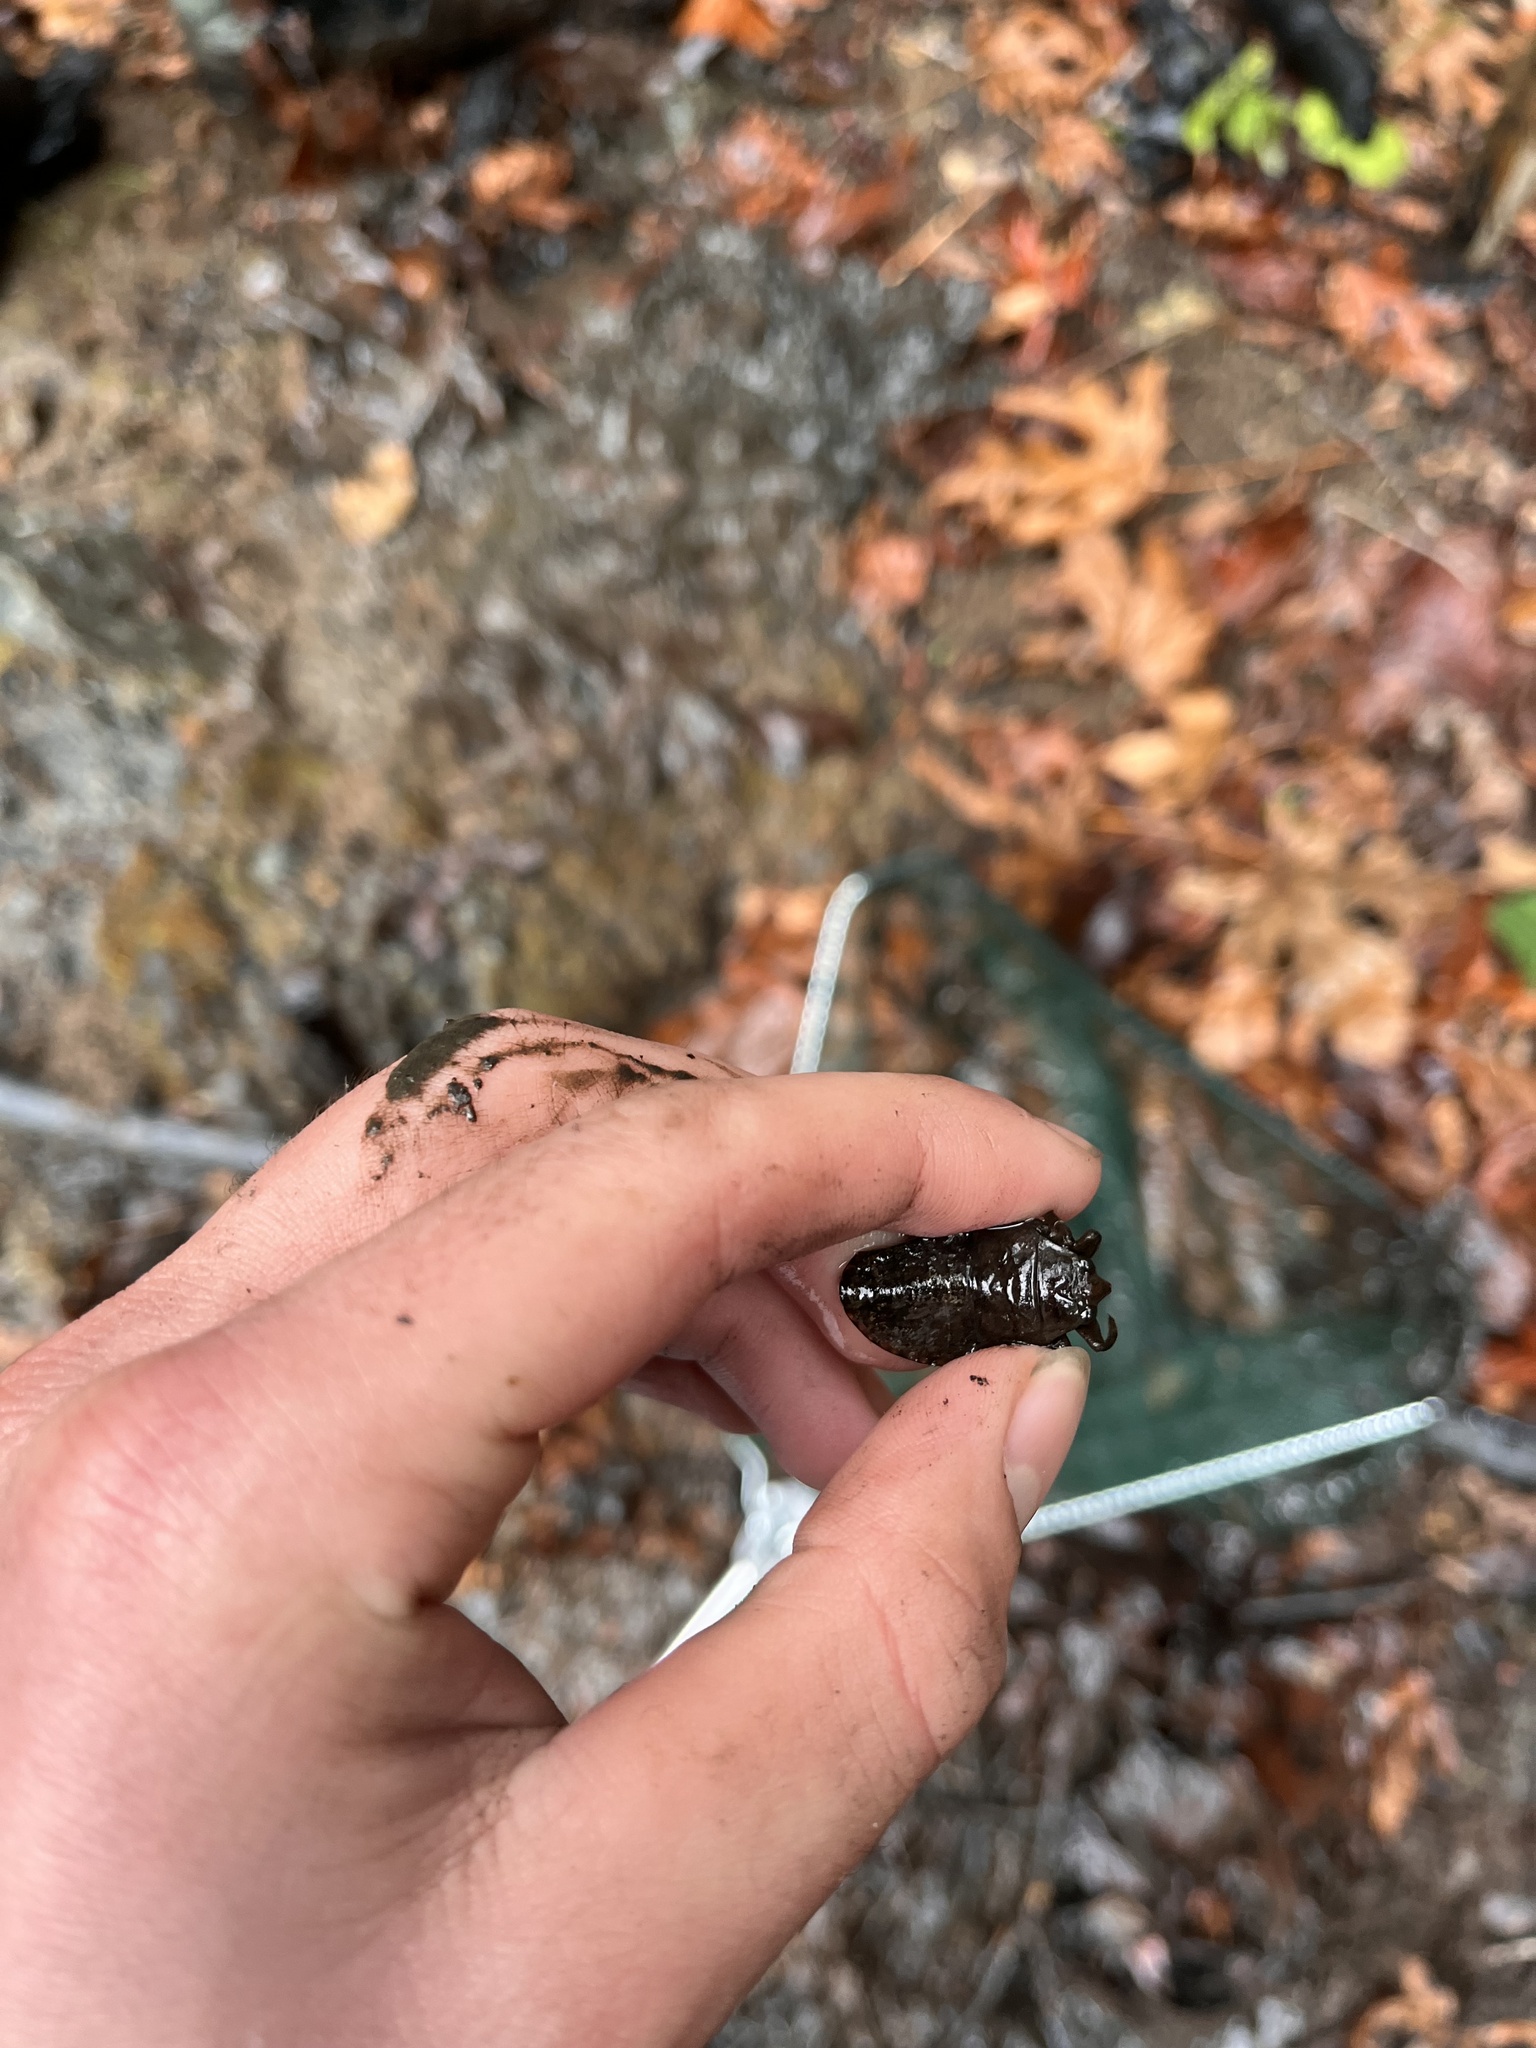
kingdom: Animalia
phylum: Arthropoda
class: Insecta
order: Hemiptera
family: Belostomatidae
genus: Abedus
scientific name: Abedus indentatus
